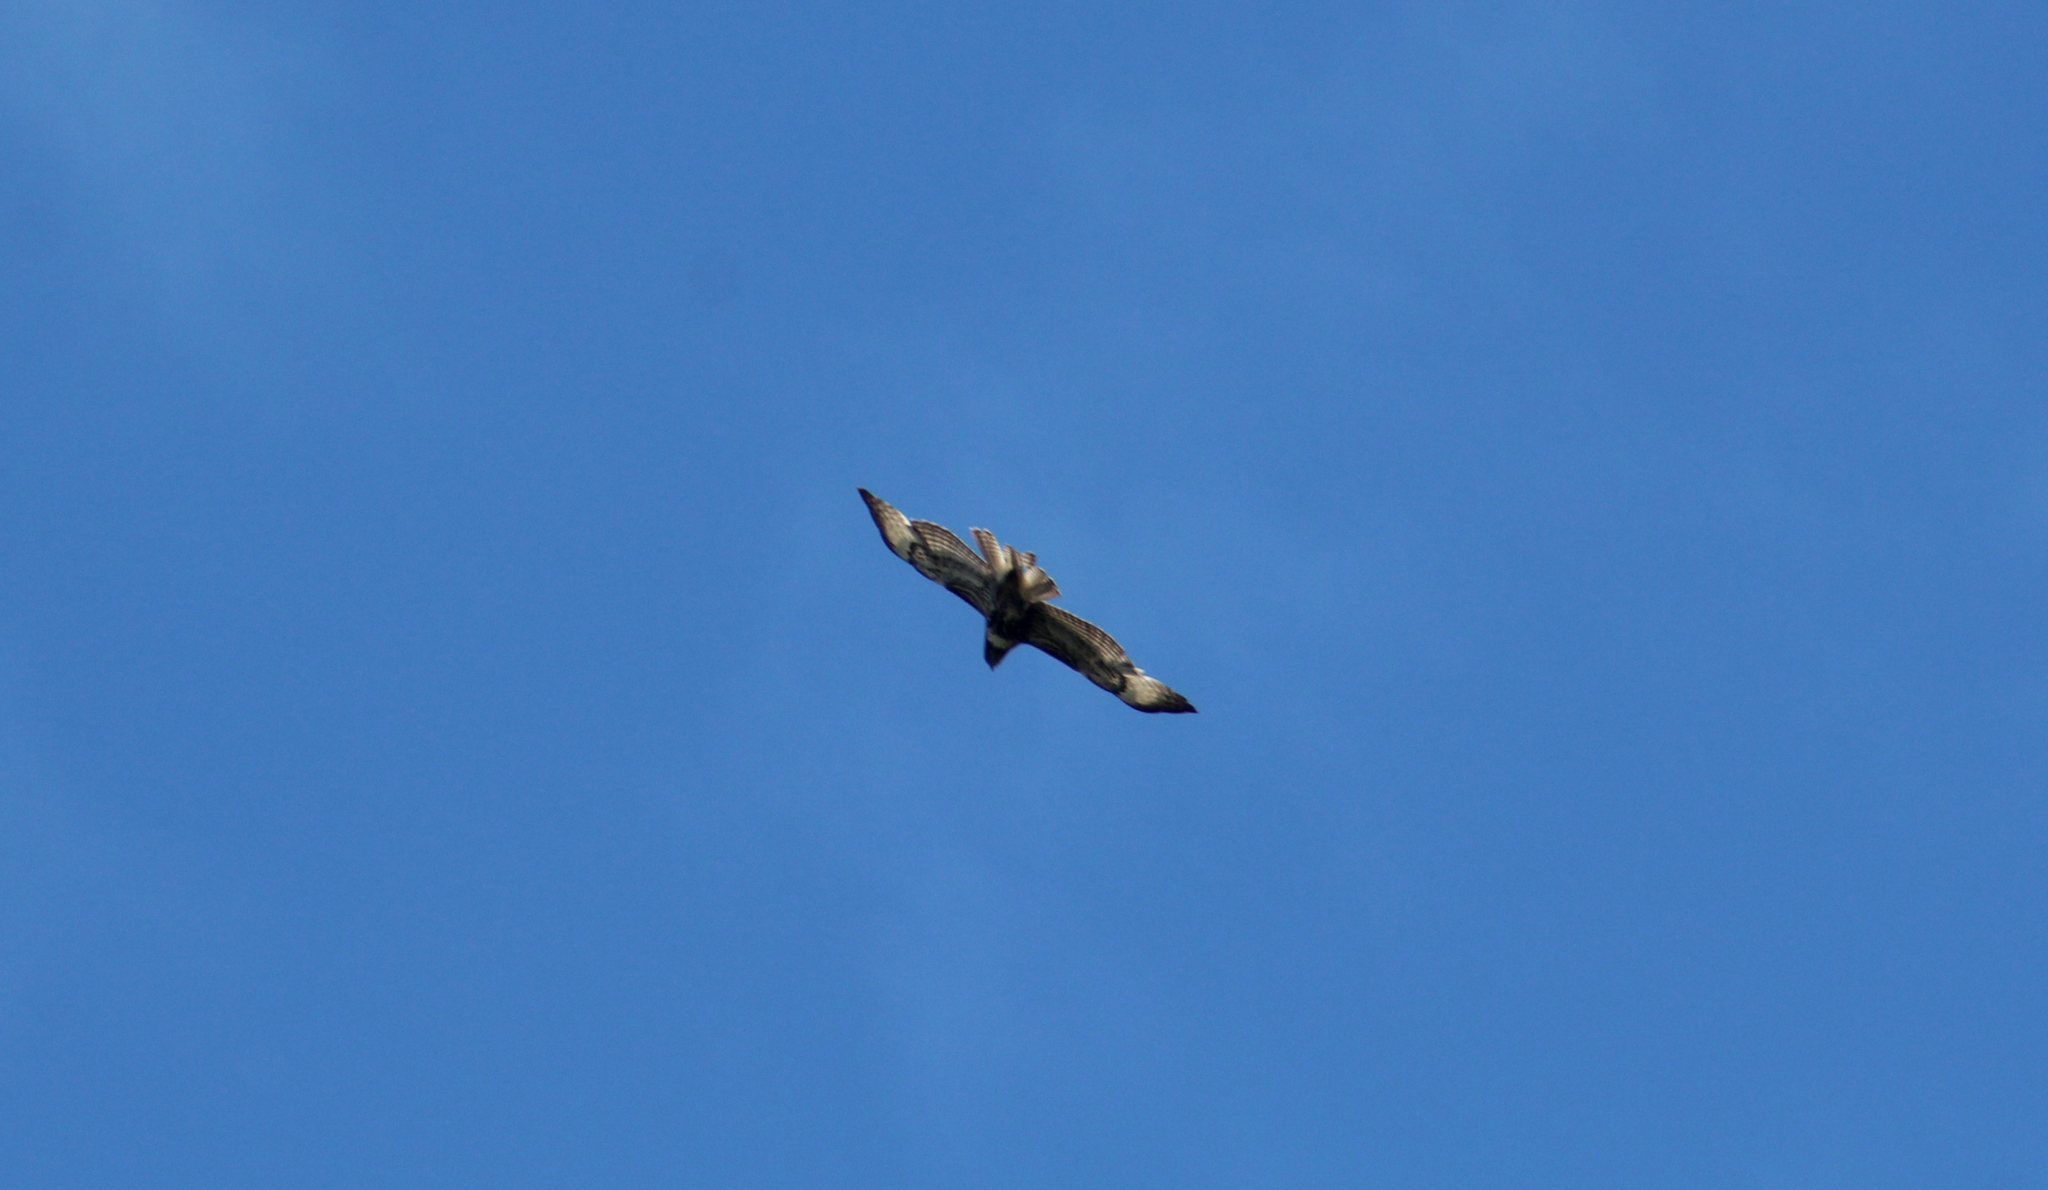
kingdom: Animalia
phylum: Chordata
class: Aves
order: Accipitriformes
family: Accipitridae
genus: Buteo
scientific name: Buteo jamaicensis
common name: Red-tailed hawk
